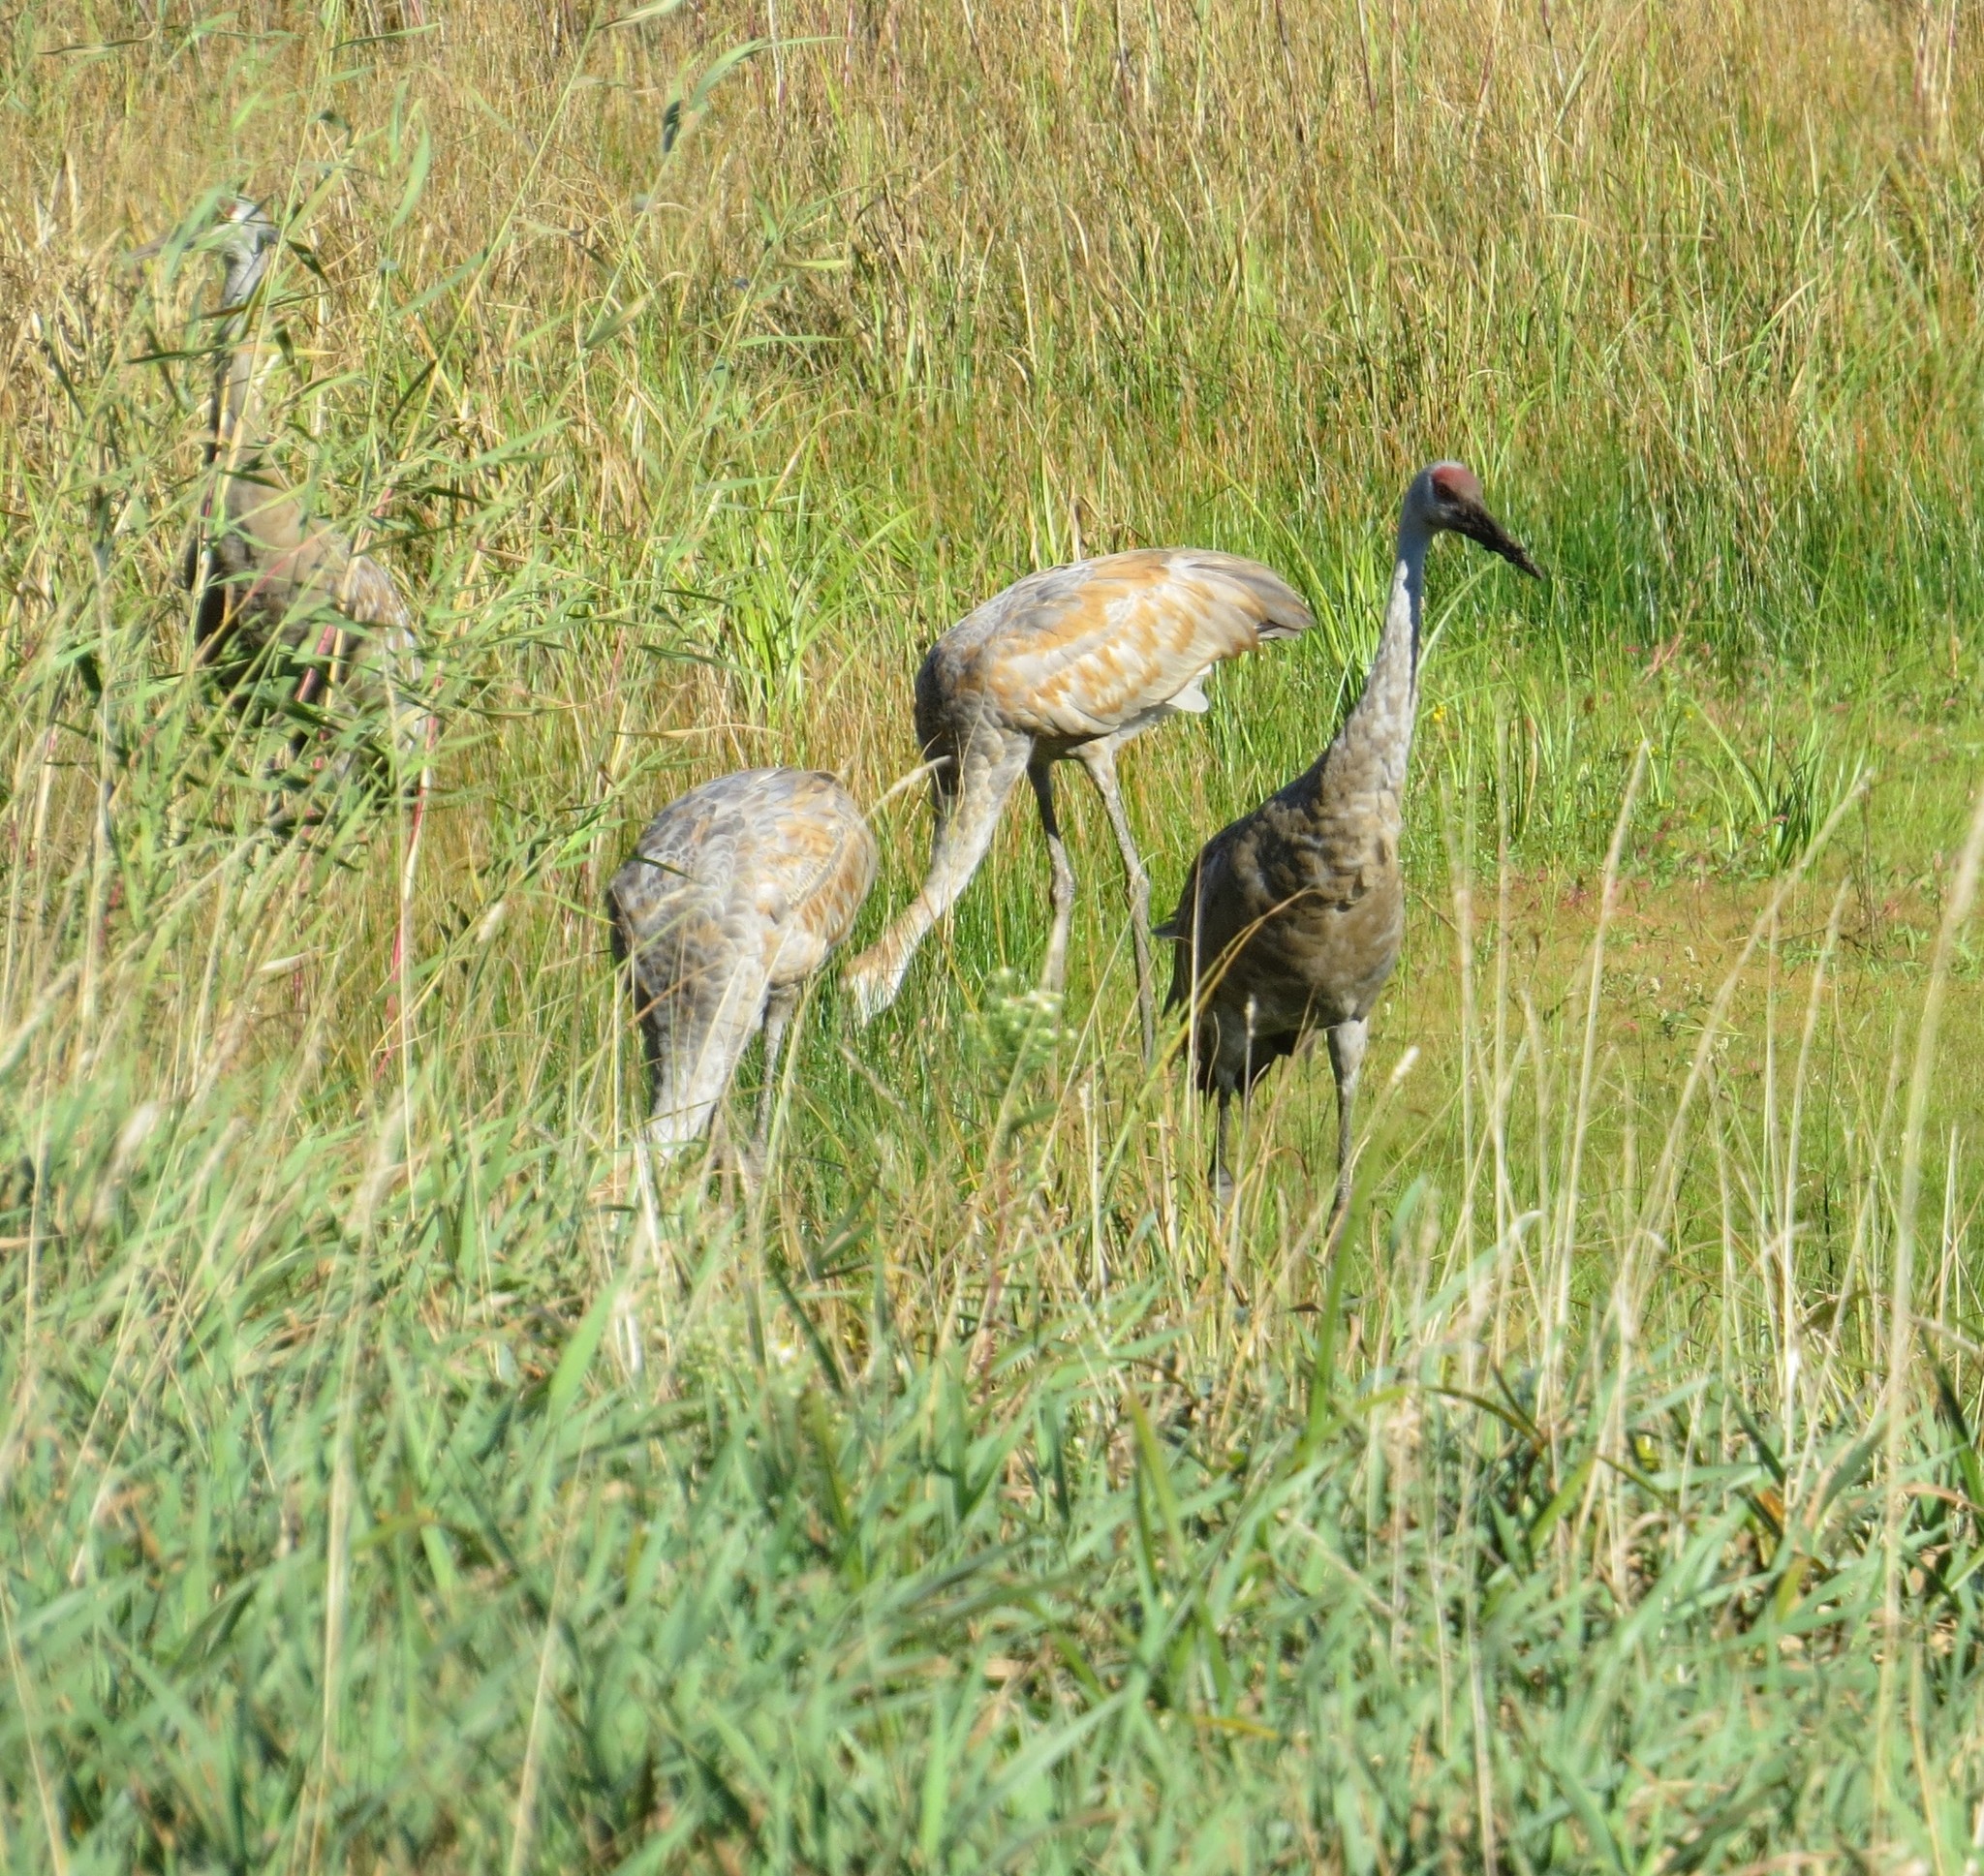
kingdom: Animalia
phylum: Chordata
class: Aves
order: Gruiformes
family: Gruidae
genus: Grus
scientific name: Grus canadensis
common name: Sandhill crane
